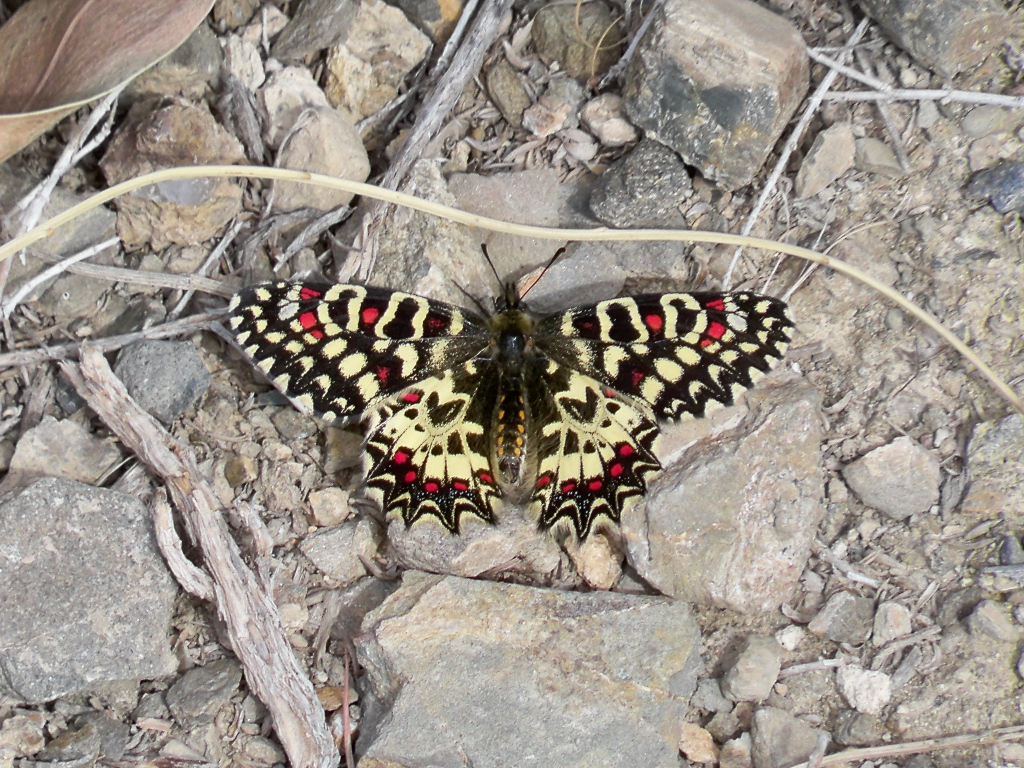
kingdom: Animalia
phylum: Arthropoda
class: Insecta
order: Lepidoptera
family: Papilionidae
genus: Zerynthia
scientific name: Zerynthia rumina
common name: Spanish festoon
